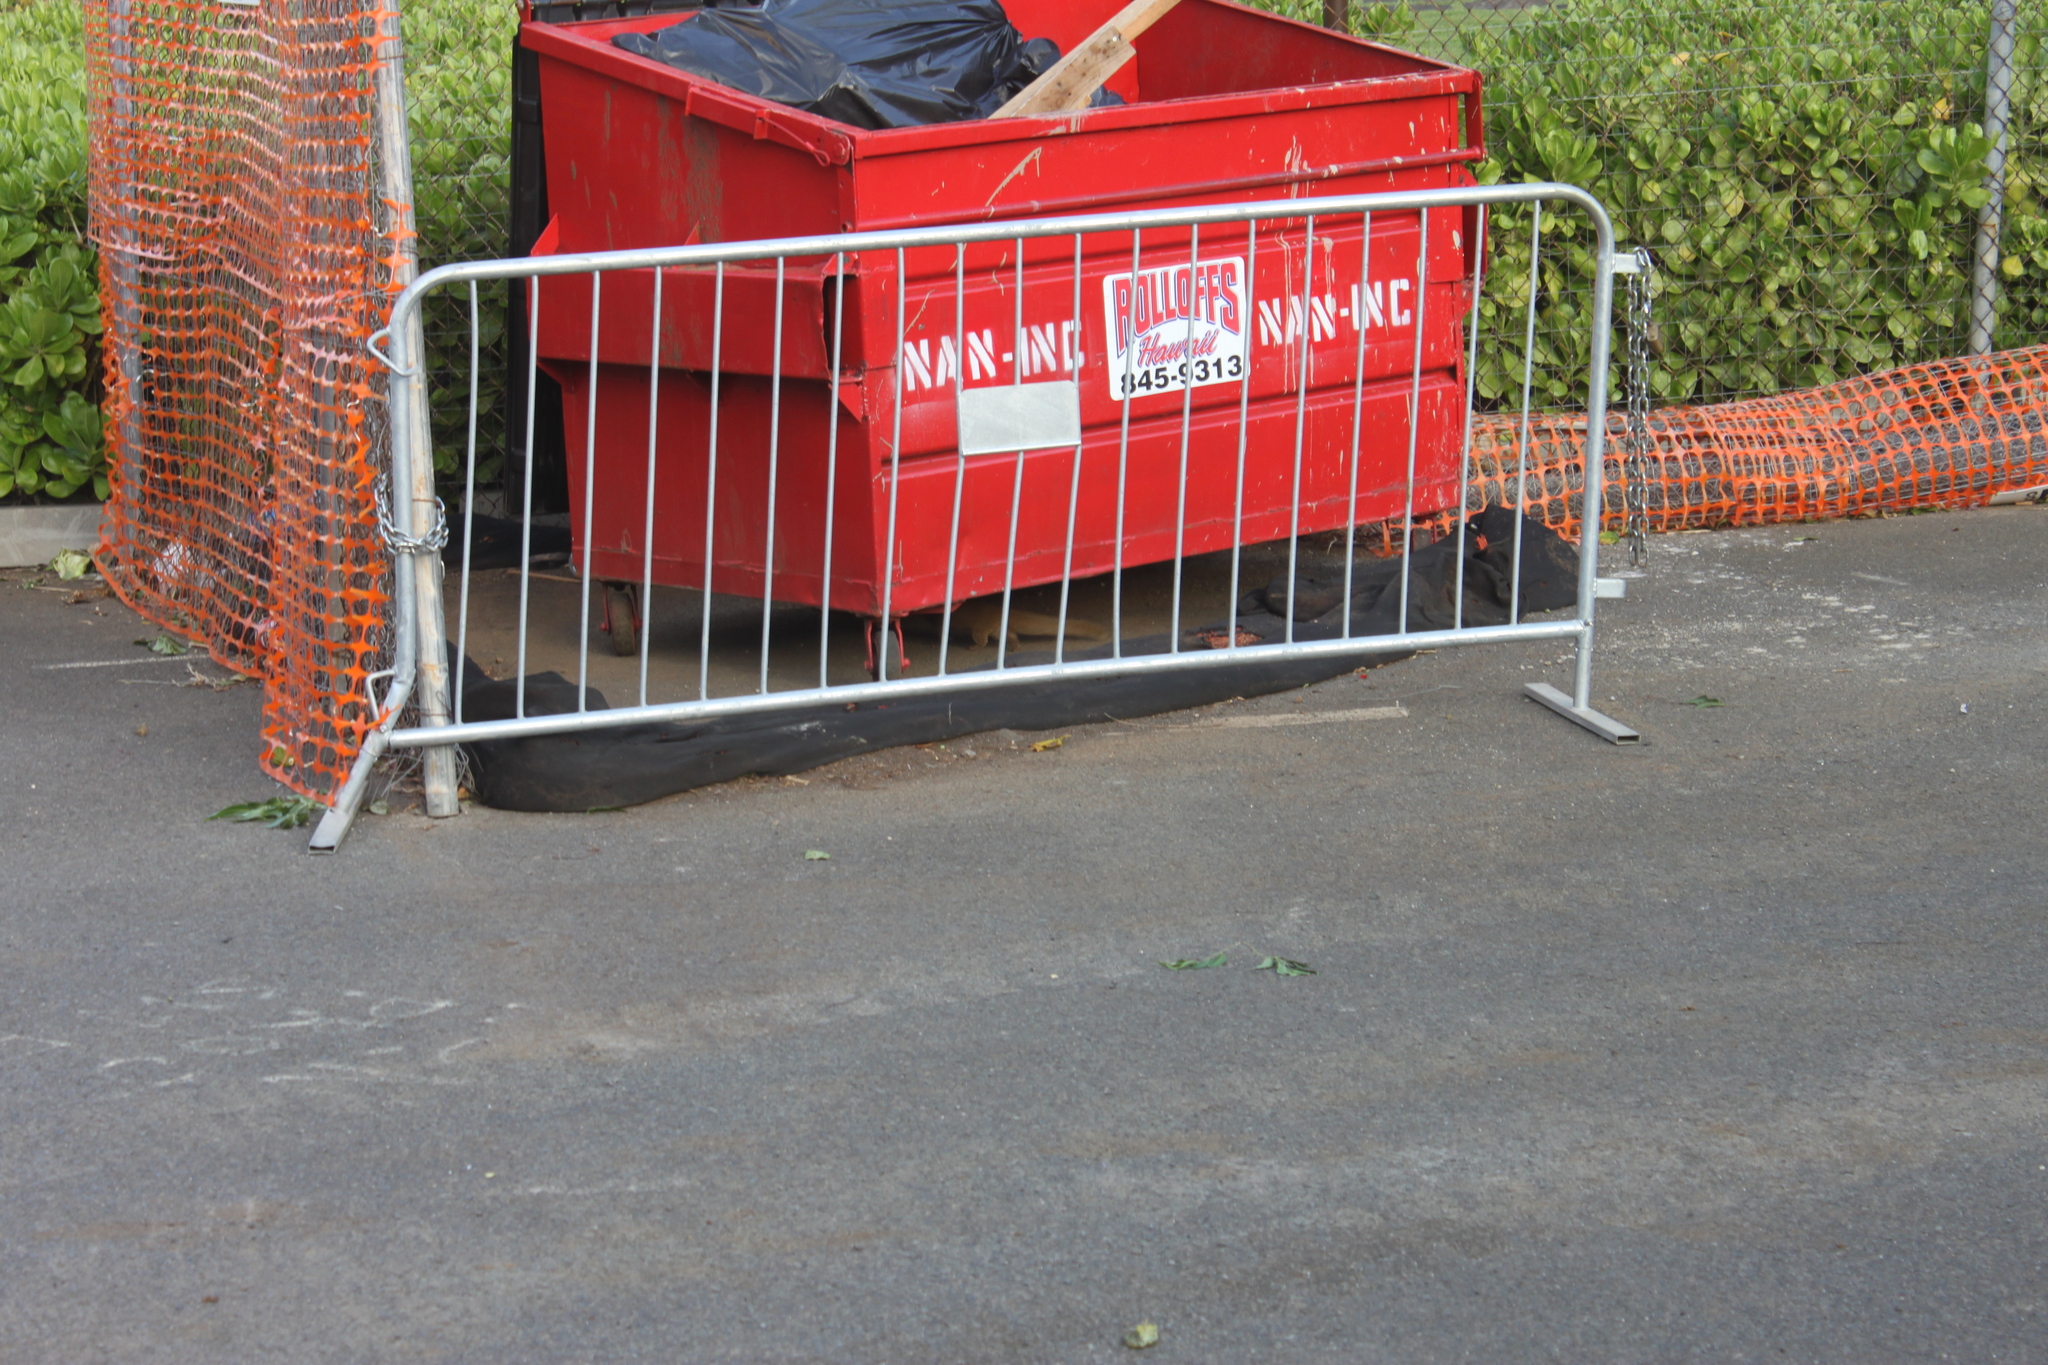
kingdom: Animalia
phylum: Chordata
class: Mammalia
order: Carnivora
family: Herpestidae
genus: Herpestes
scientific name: Herpestes javanicus
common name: Small asian mongoose
